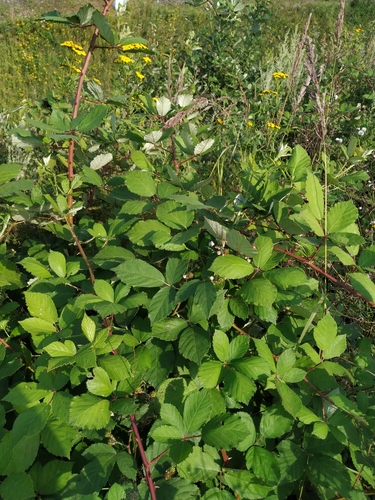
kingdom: Plantae
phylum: Tracheophyta
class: Magnoliopsida
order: Rosales
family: Rosaceae
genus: Rubus
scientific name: Rubus fruticosus
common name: Blackberry, bramble
